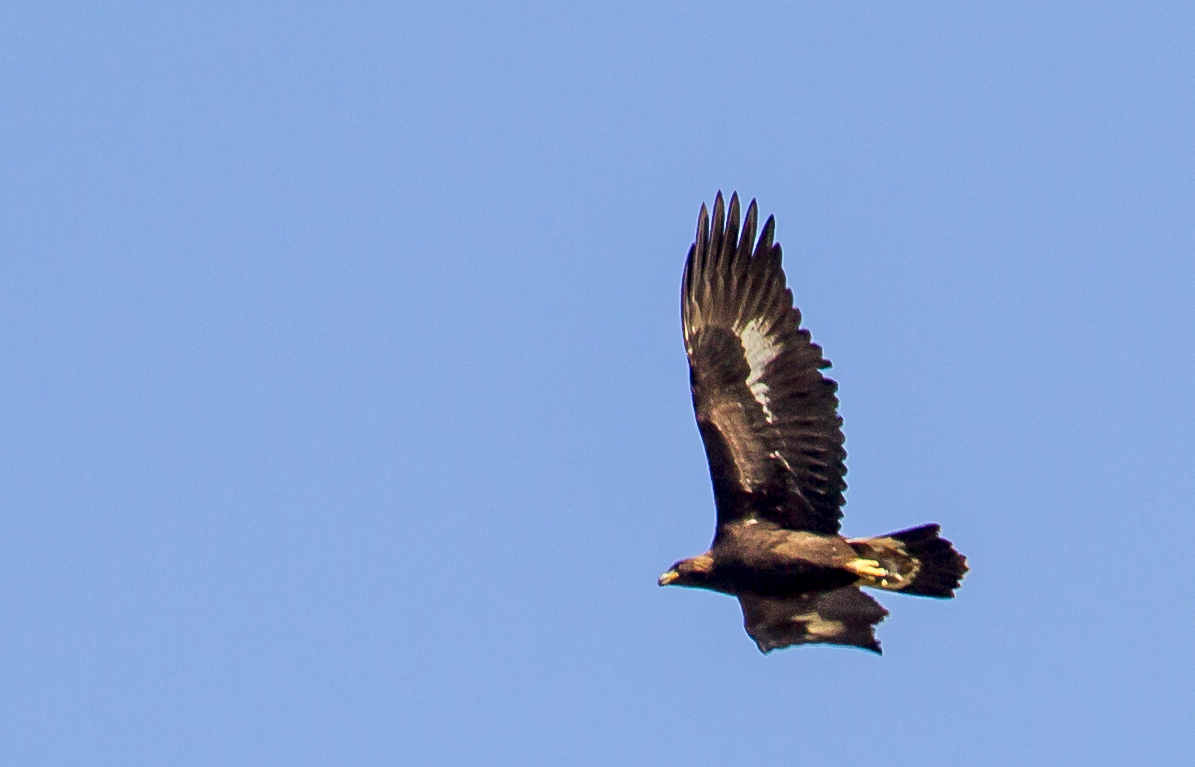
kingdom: Animalia
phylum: Chordata
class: Aves
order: Accipitriformes
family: Accipitridae
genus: Aquila
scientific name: Aquila chrysaetos
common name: Golden eagle
